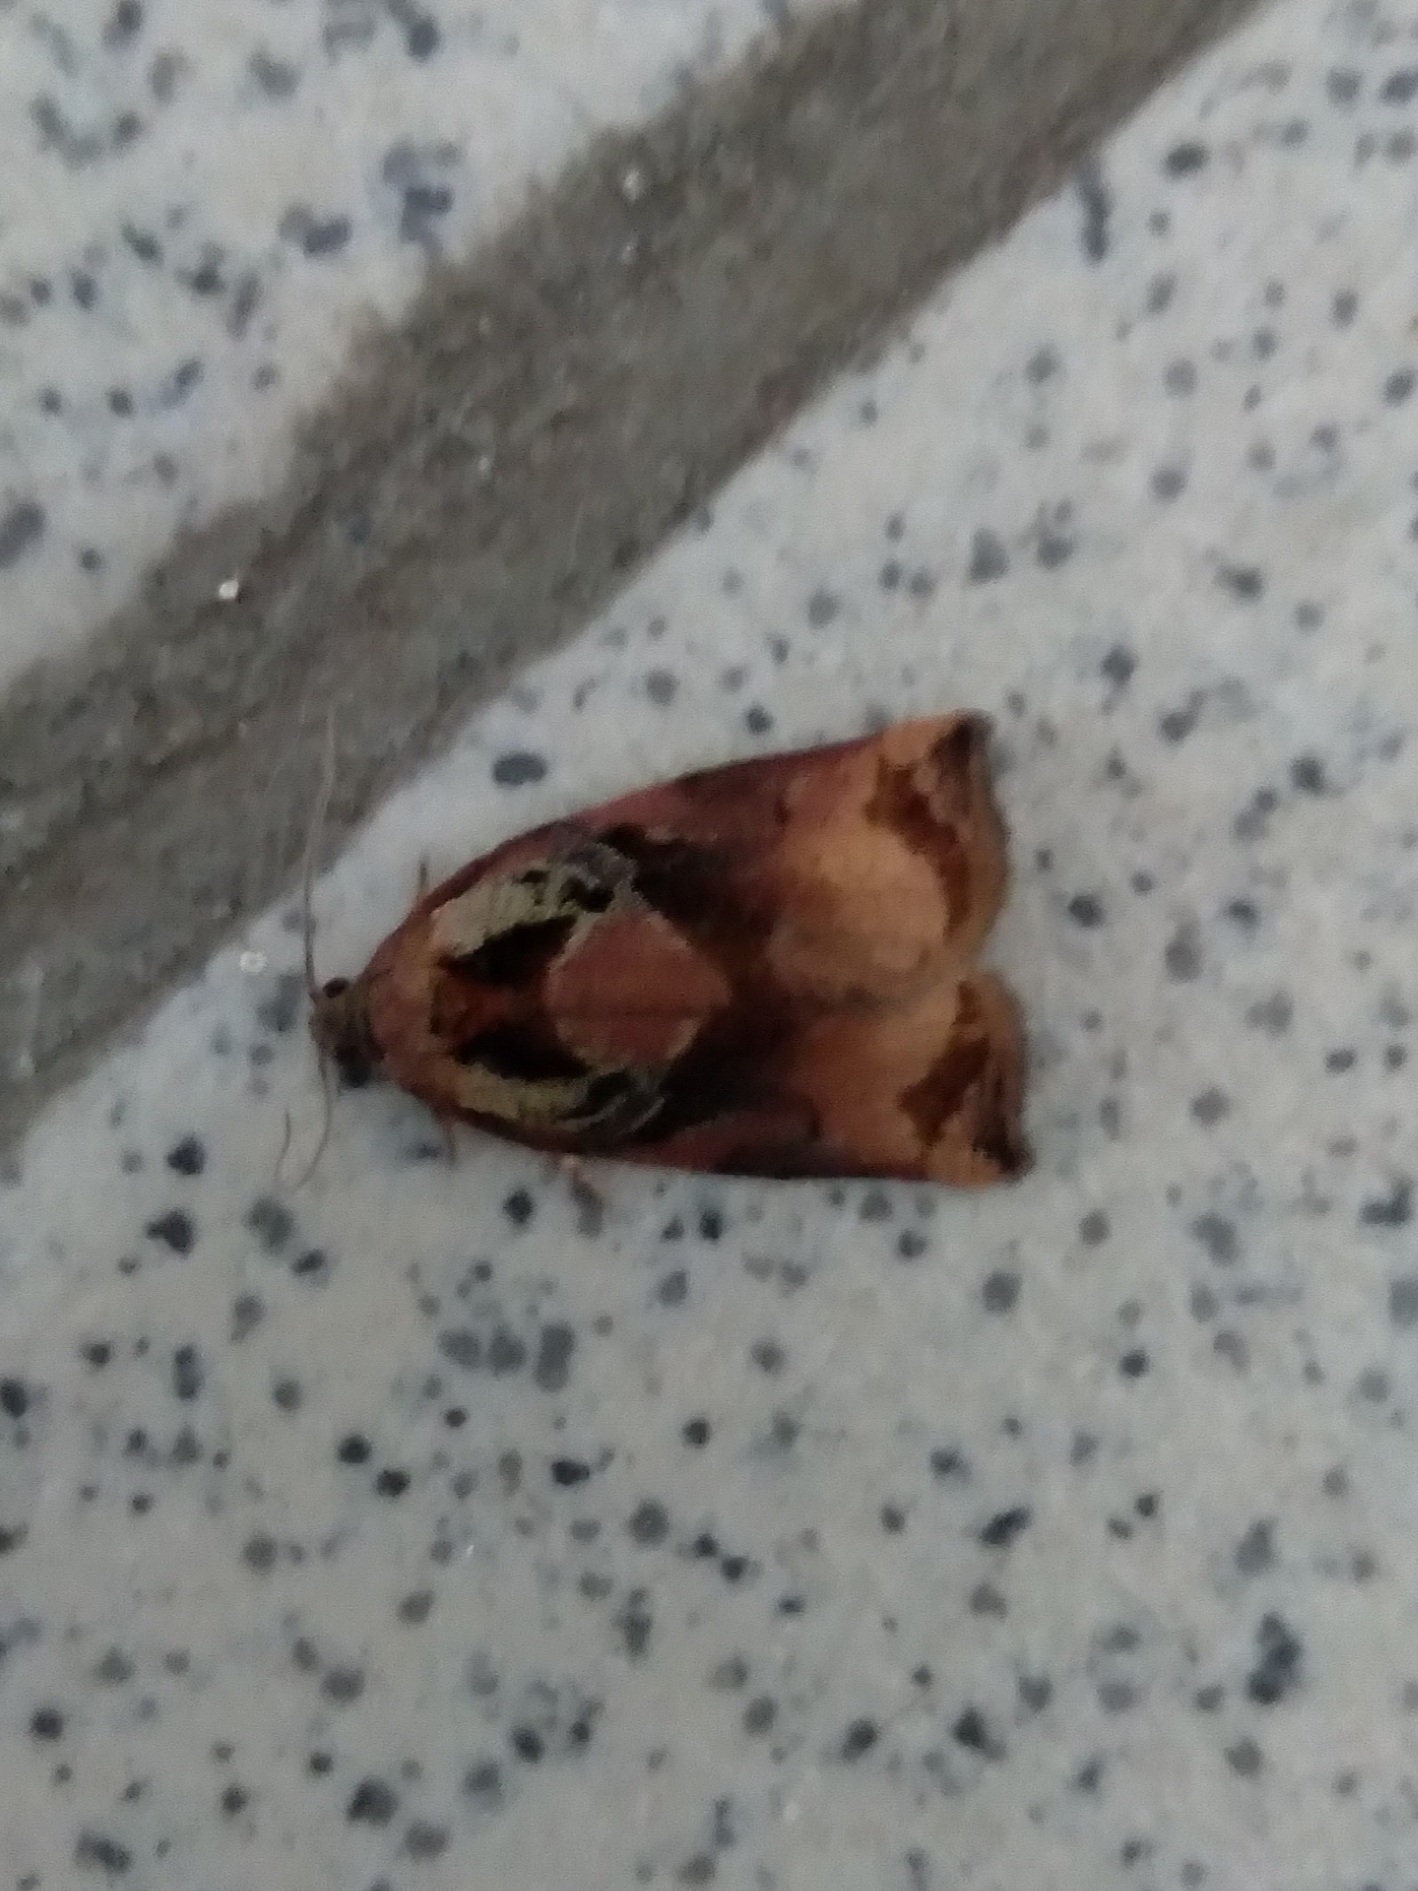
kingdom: Animalia
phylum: Arthropoda
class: Insecta
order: Lepidoptera
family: Tortricidae
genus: Archips
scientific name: Archips podana
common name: Large fruit-tree tortrix
